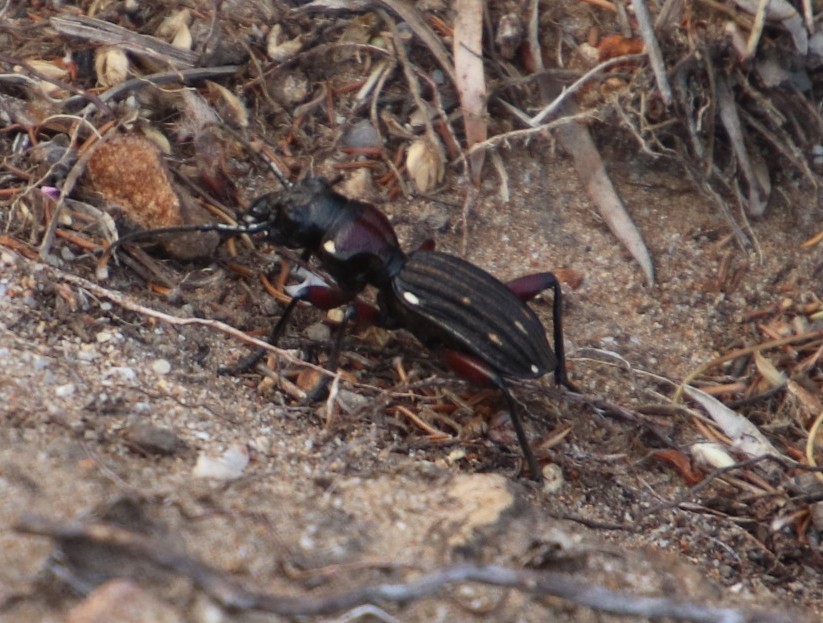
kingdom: Animalia
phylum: Arthropoda
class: Insecta
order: Coleoptera
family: Carabidae
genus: Anthia
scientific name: Anthia decemguttata
